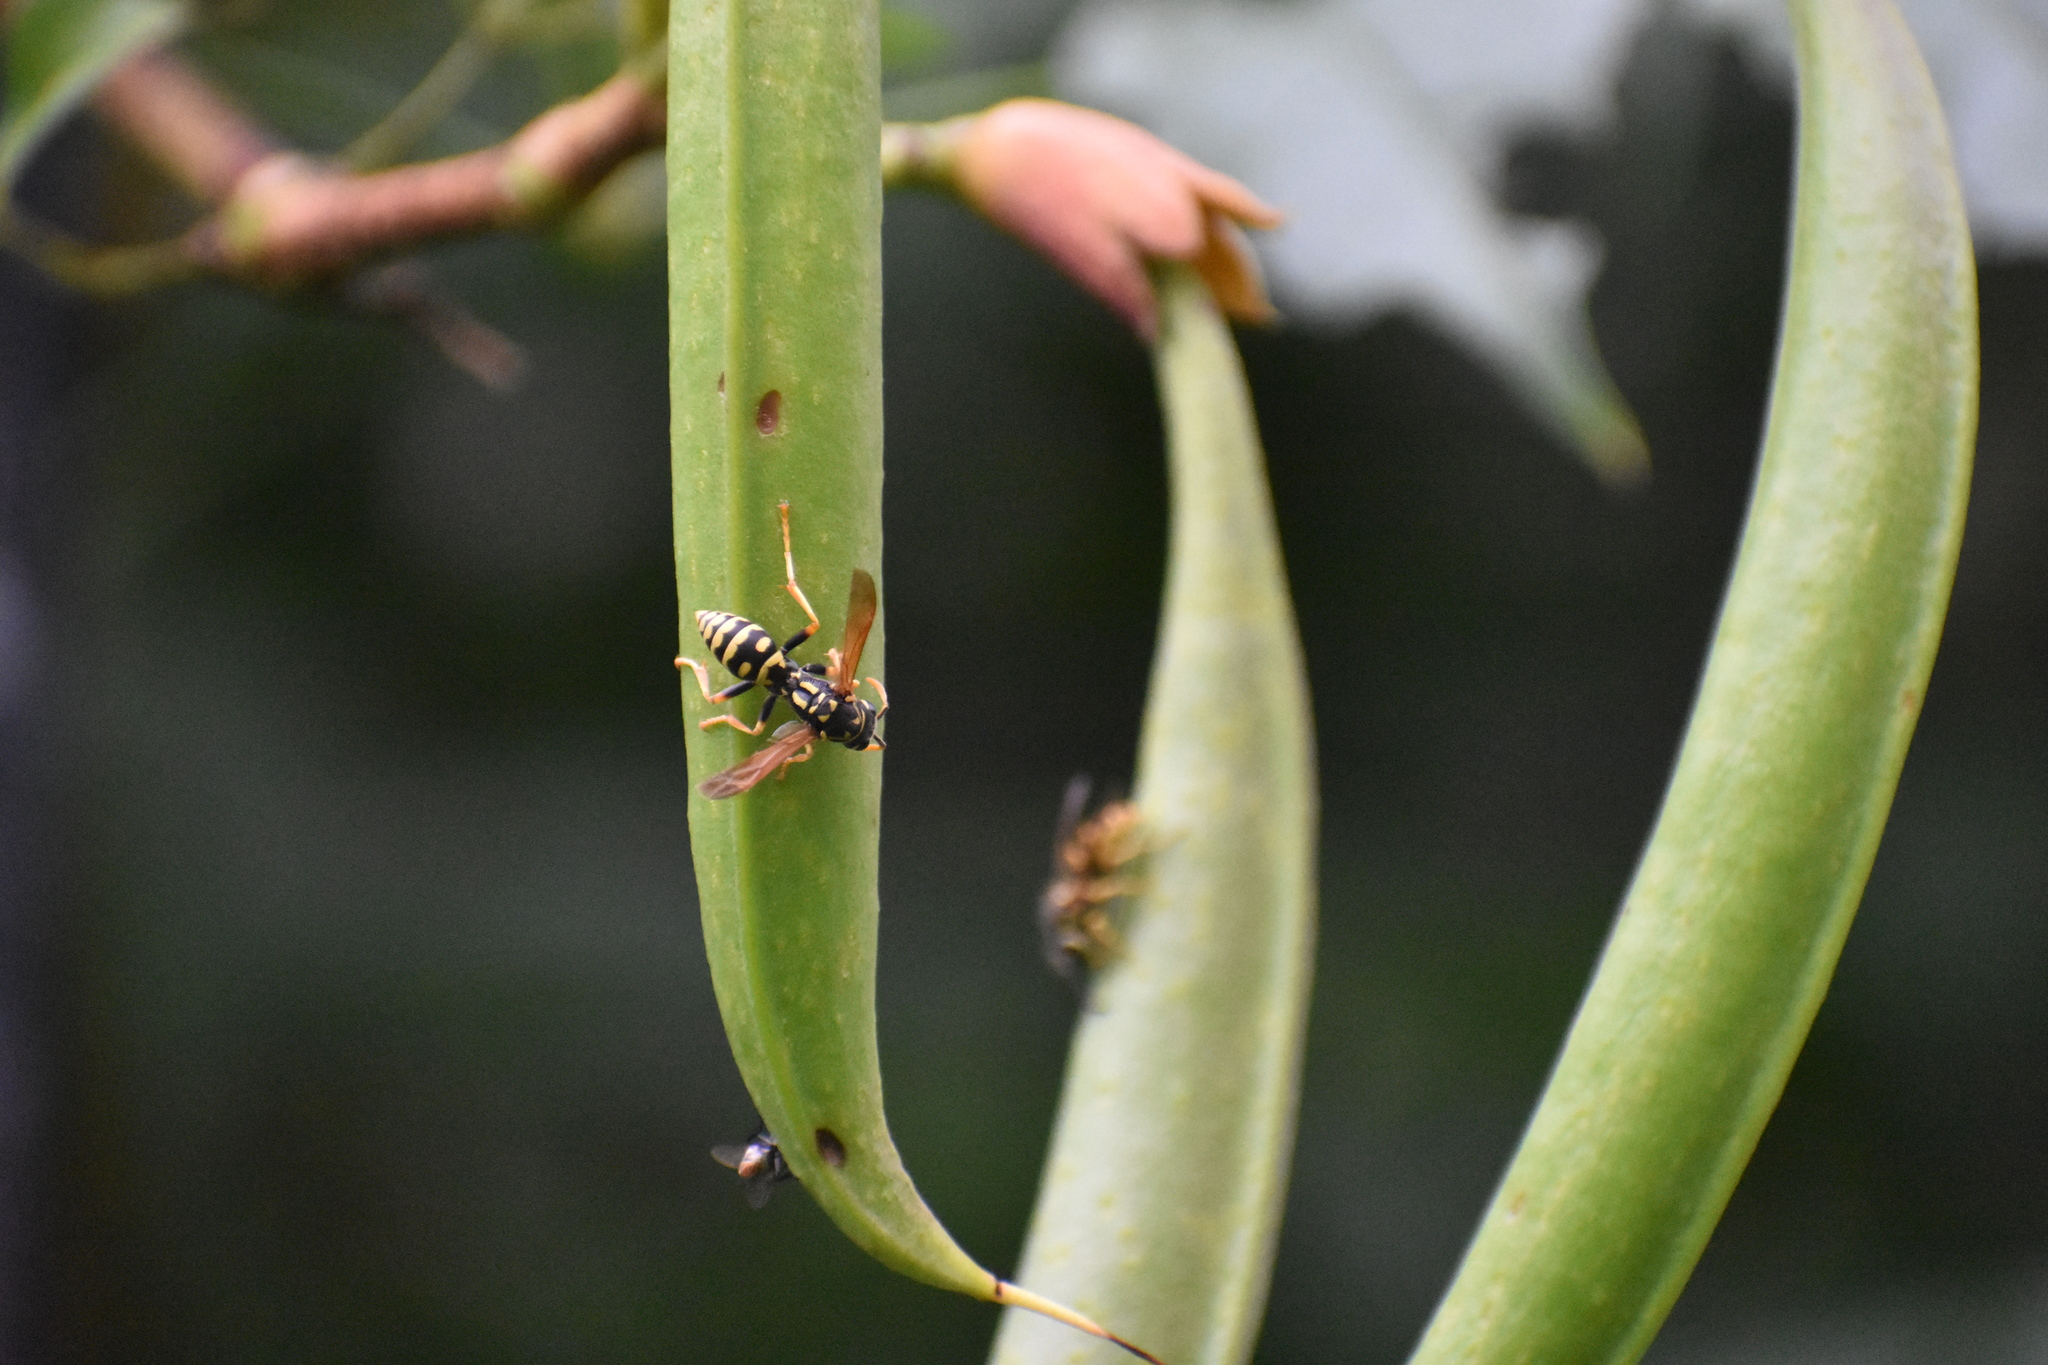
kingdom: Animalia
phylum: Arthropoda
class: Insecta
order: Hymenoptera
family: Eumenidae
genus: Polistes
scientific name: Polistes dominula
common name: Paper wasp
